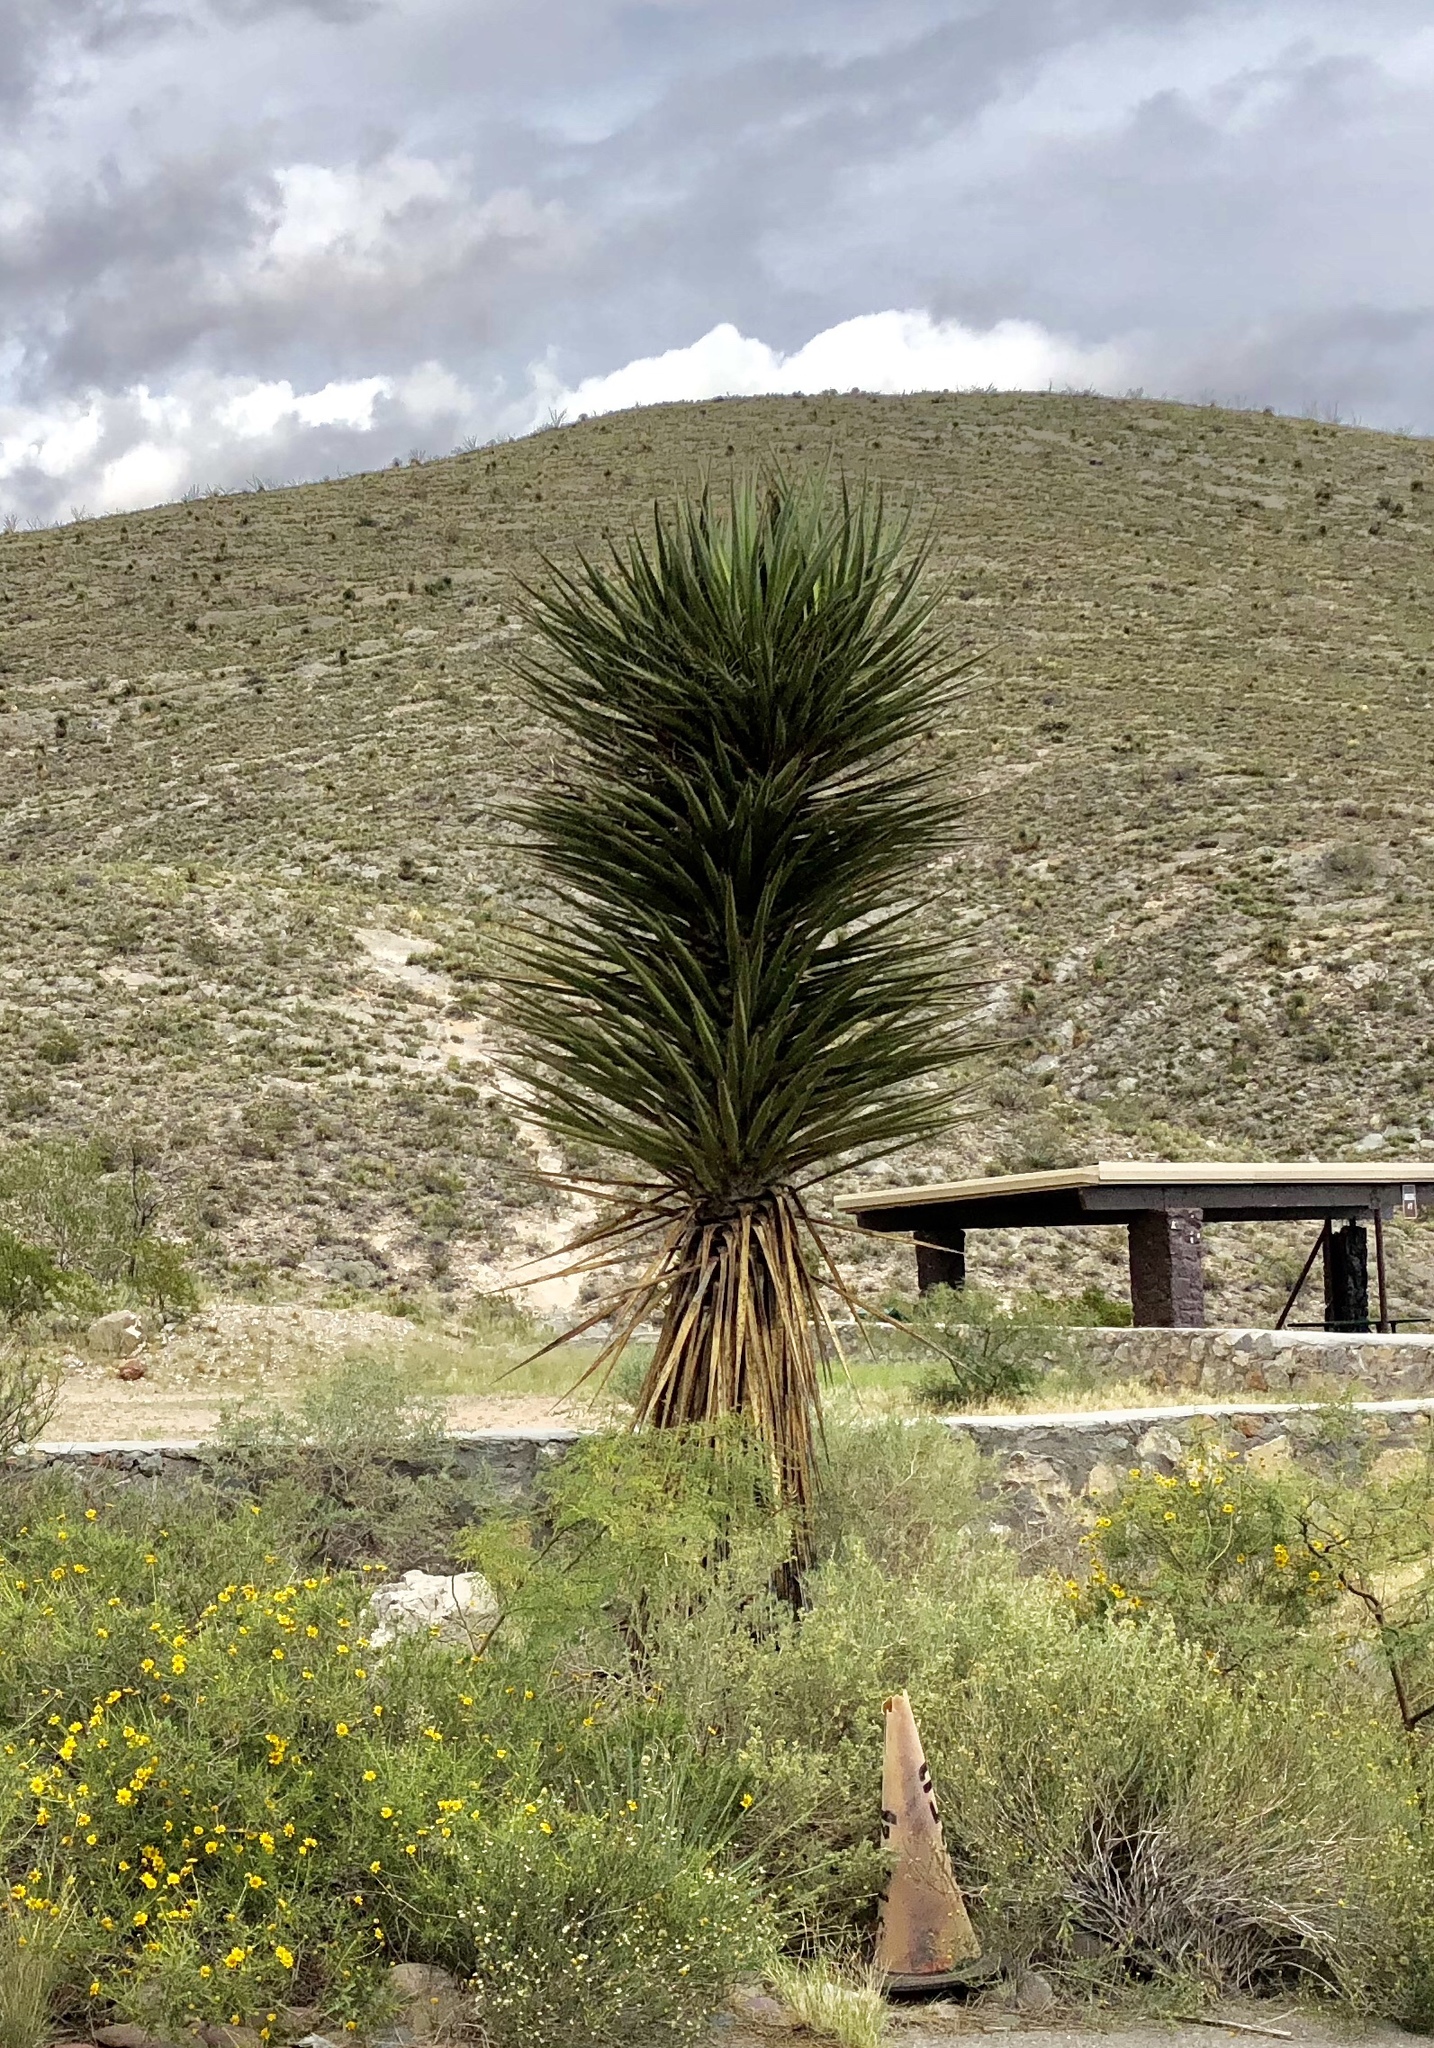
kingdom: Plantae
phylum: Tracheophyta
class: Liliopsida
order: Asparagales
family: Asparagaceae
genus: Yucca
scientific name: Yucca treculiana
